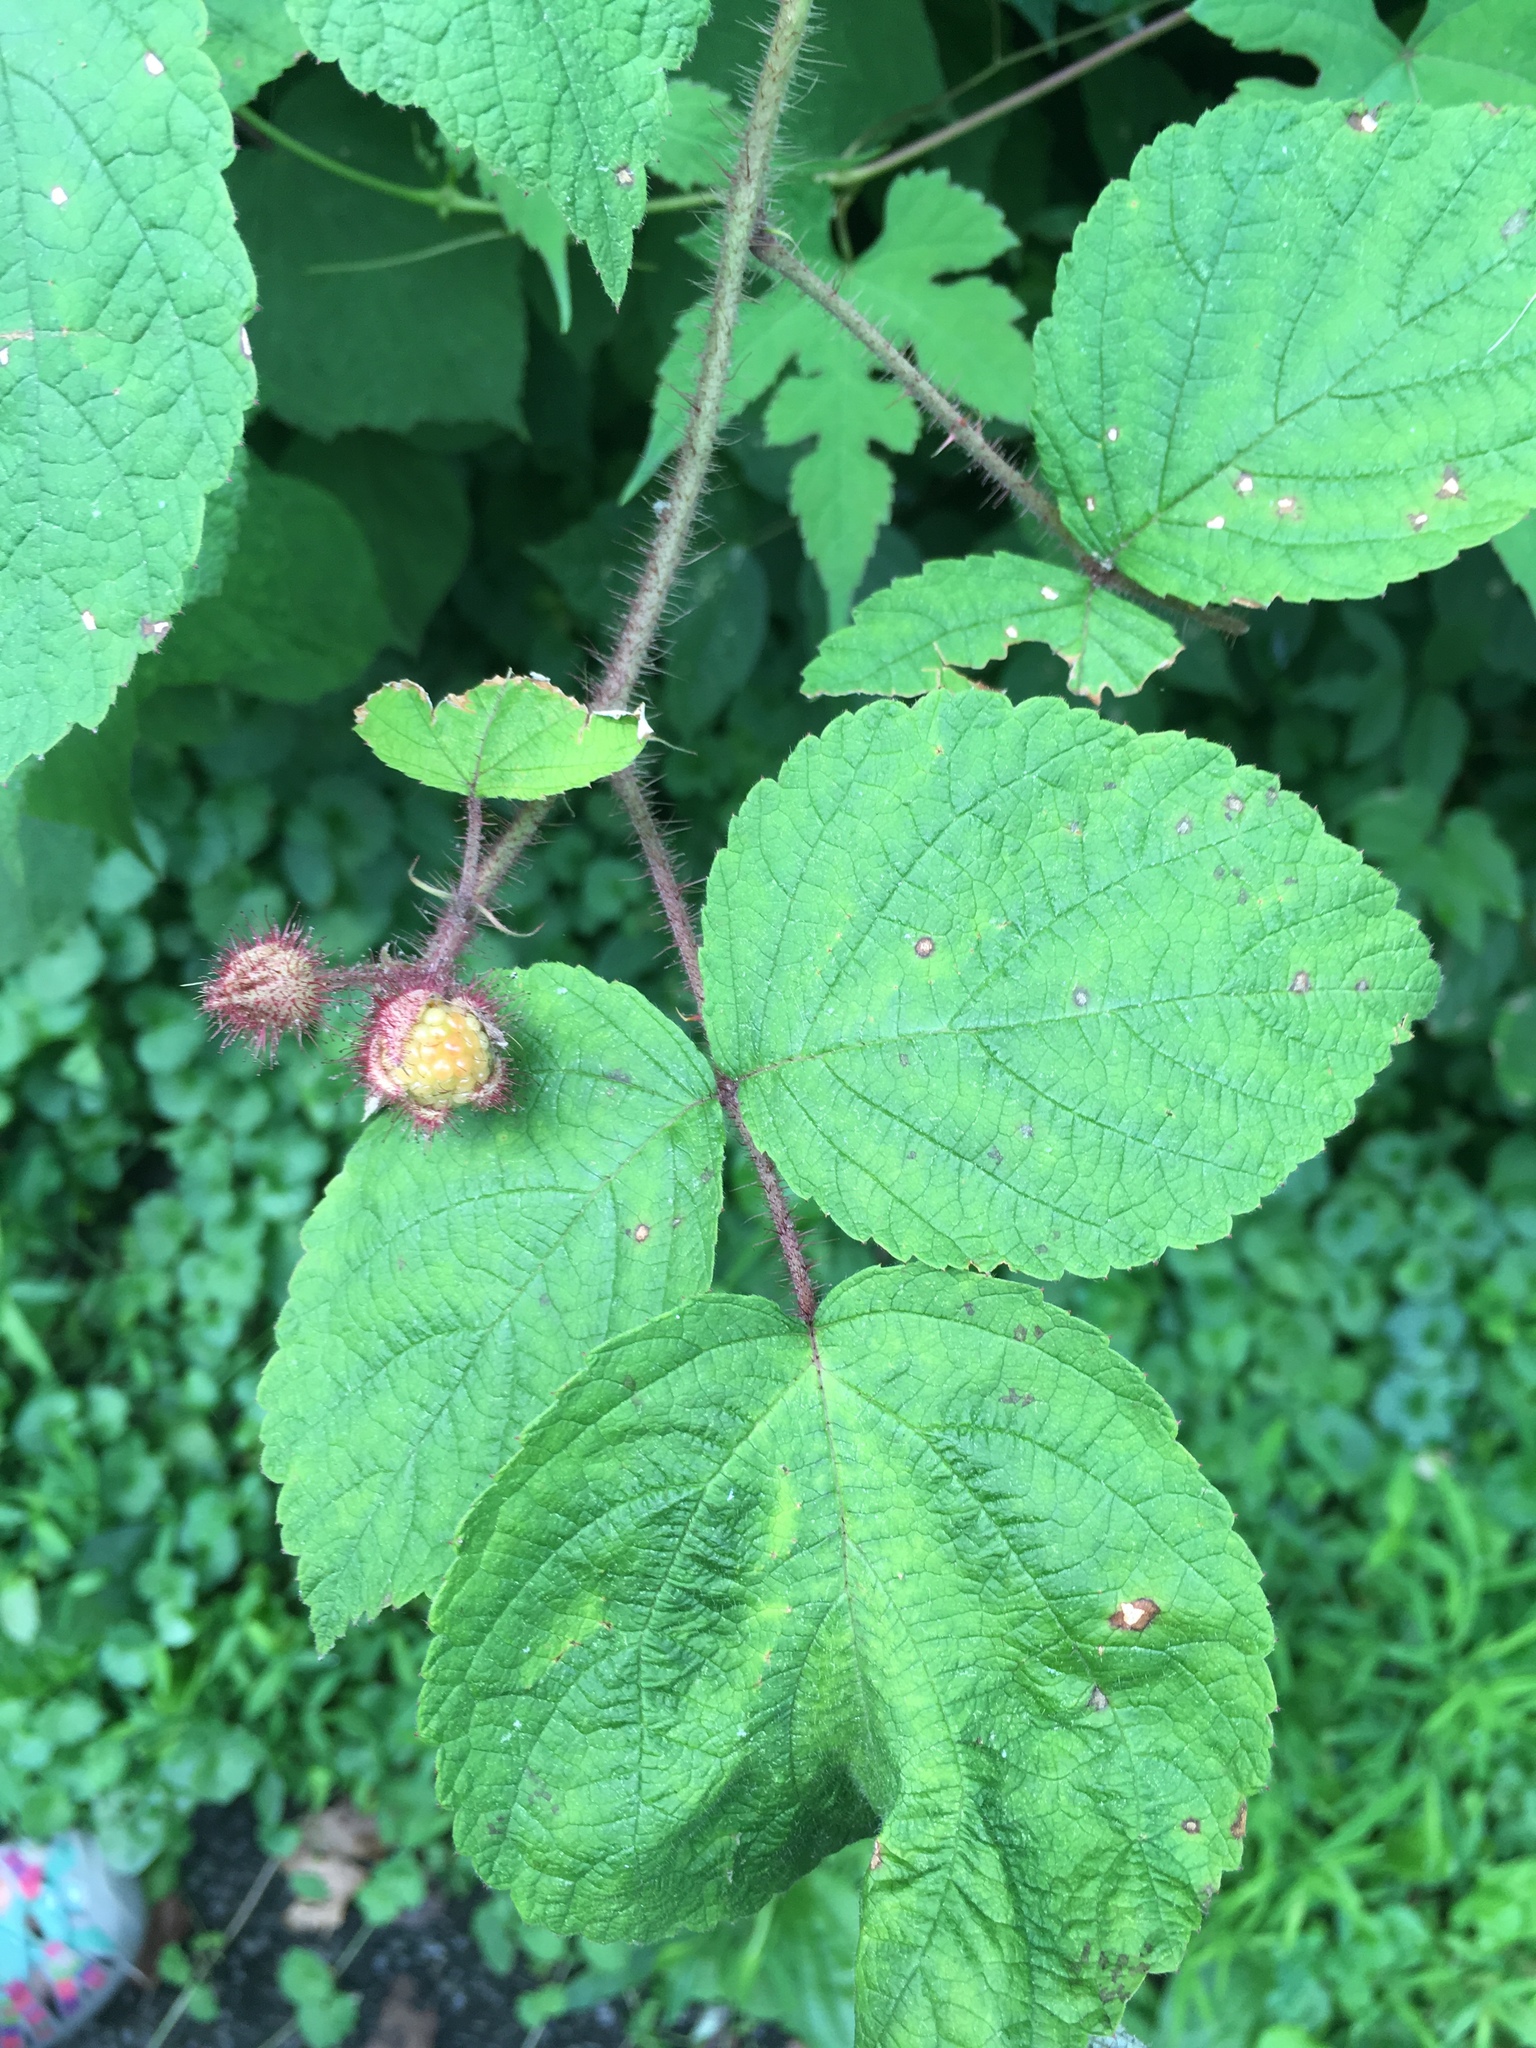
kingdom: Plantae
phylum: Tracheophyta
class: Magnoliopsida
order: Rosales
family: Rosaceae
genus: Rubus
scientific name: Rubus phoenicolasius
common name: Japanese wineberry
